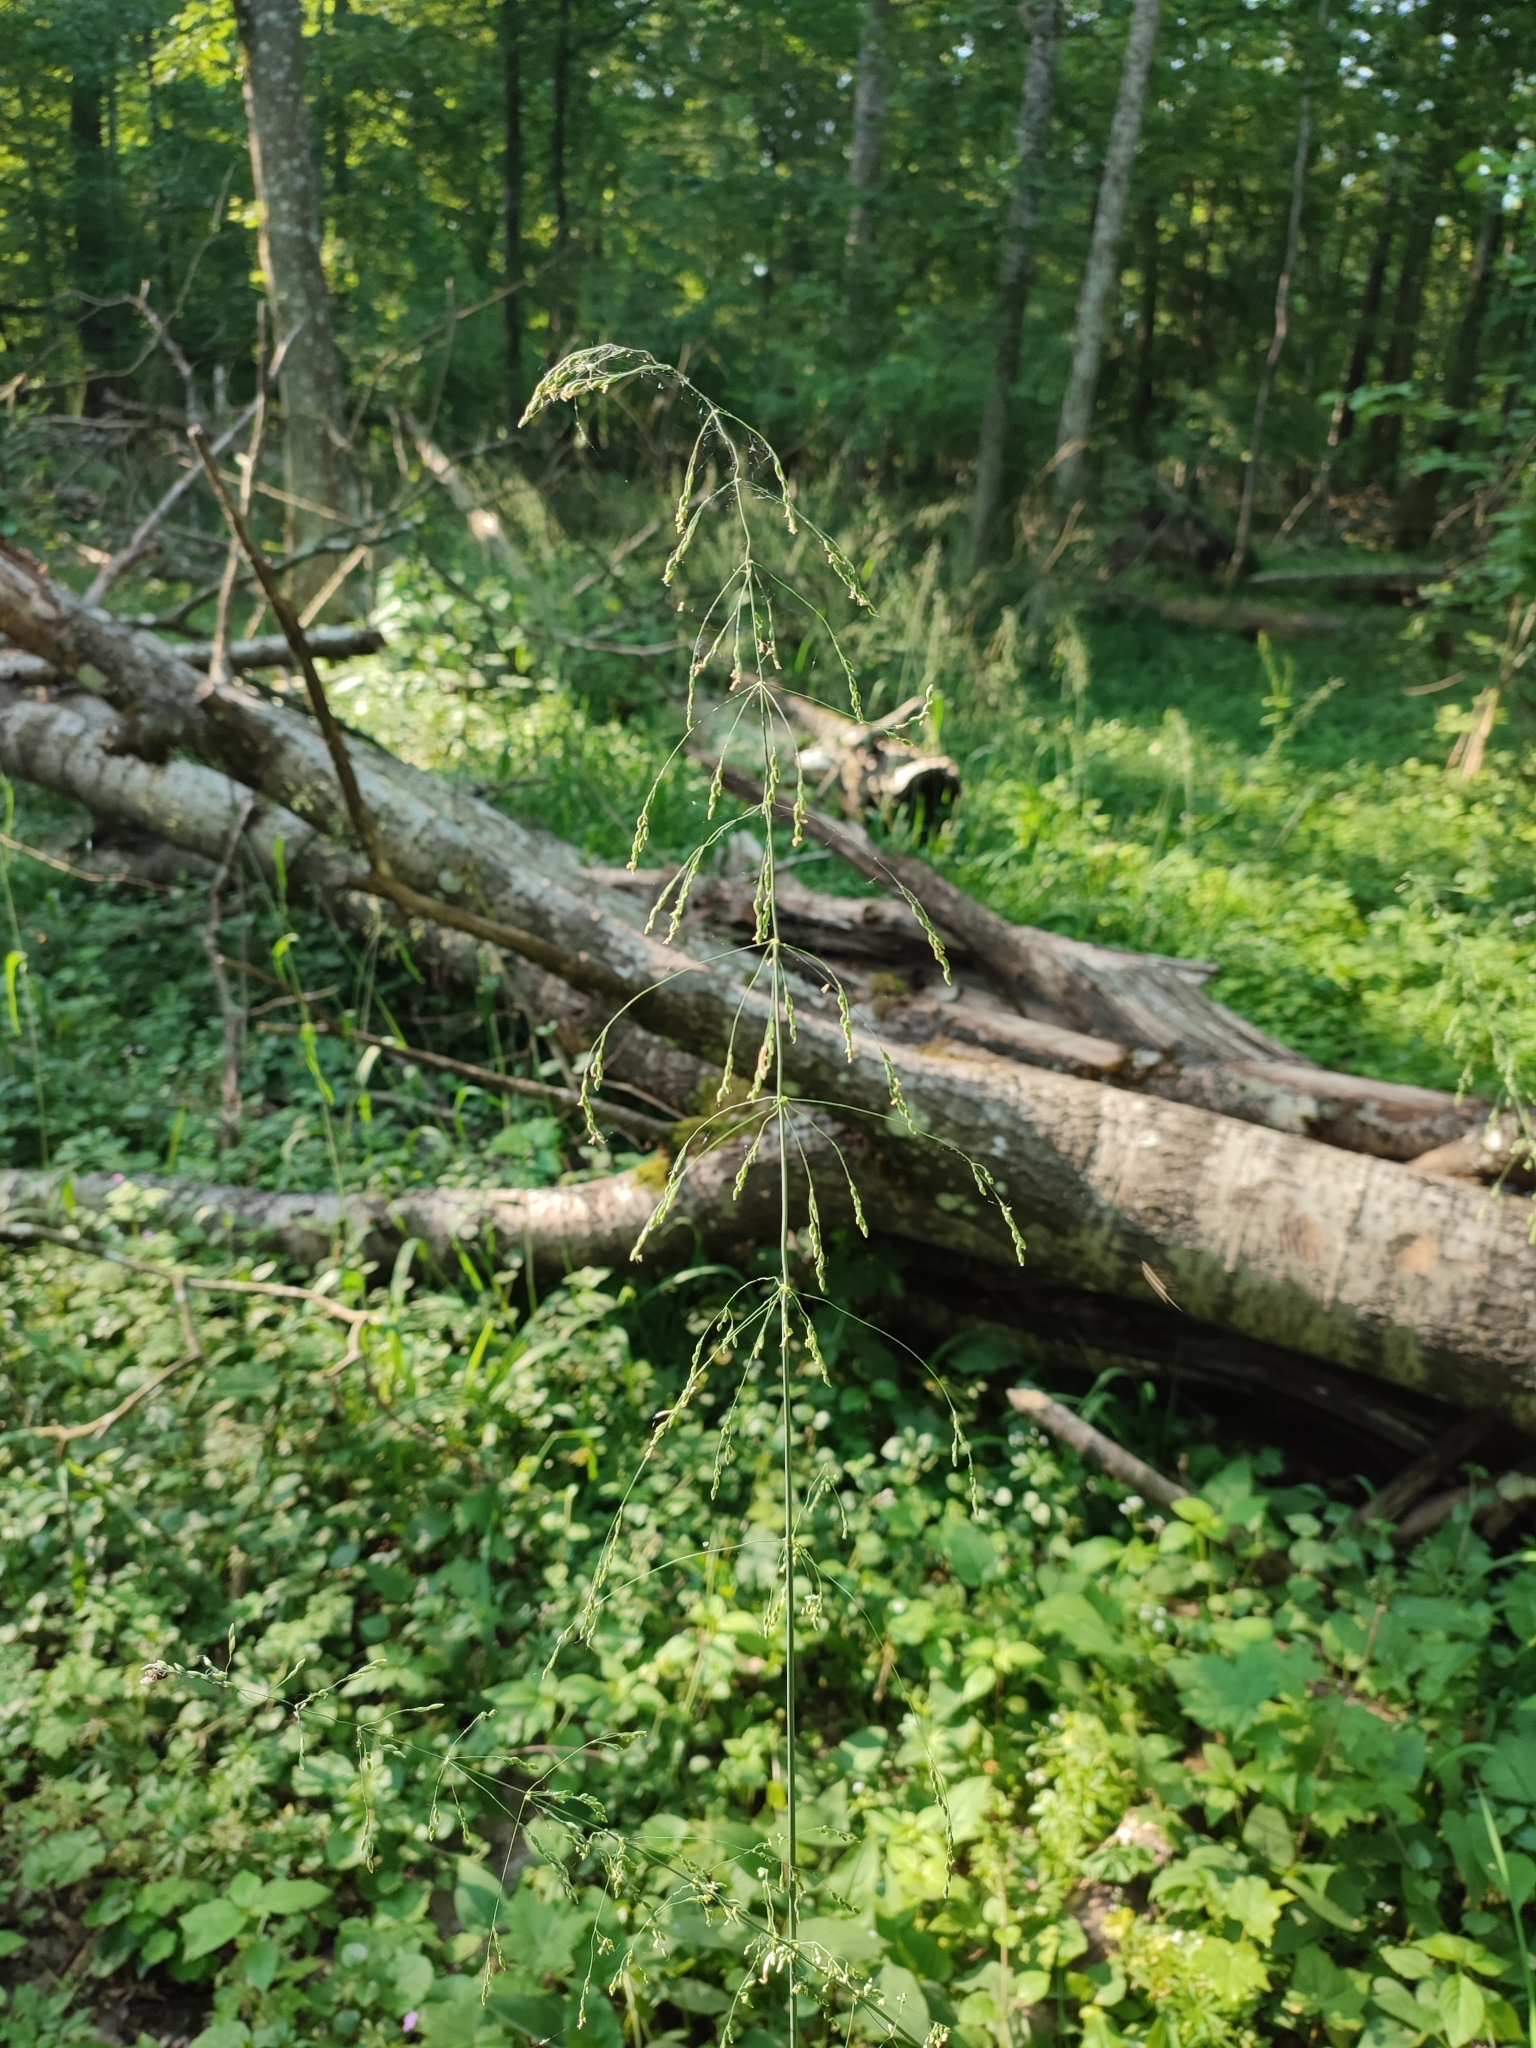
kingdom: Plantae
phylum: Tracheophyta
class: Liliopsida
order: Poales
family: Poaceae
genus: Milium
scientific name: Milium effusum
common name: Wood millet
